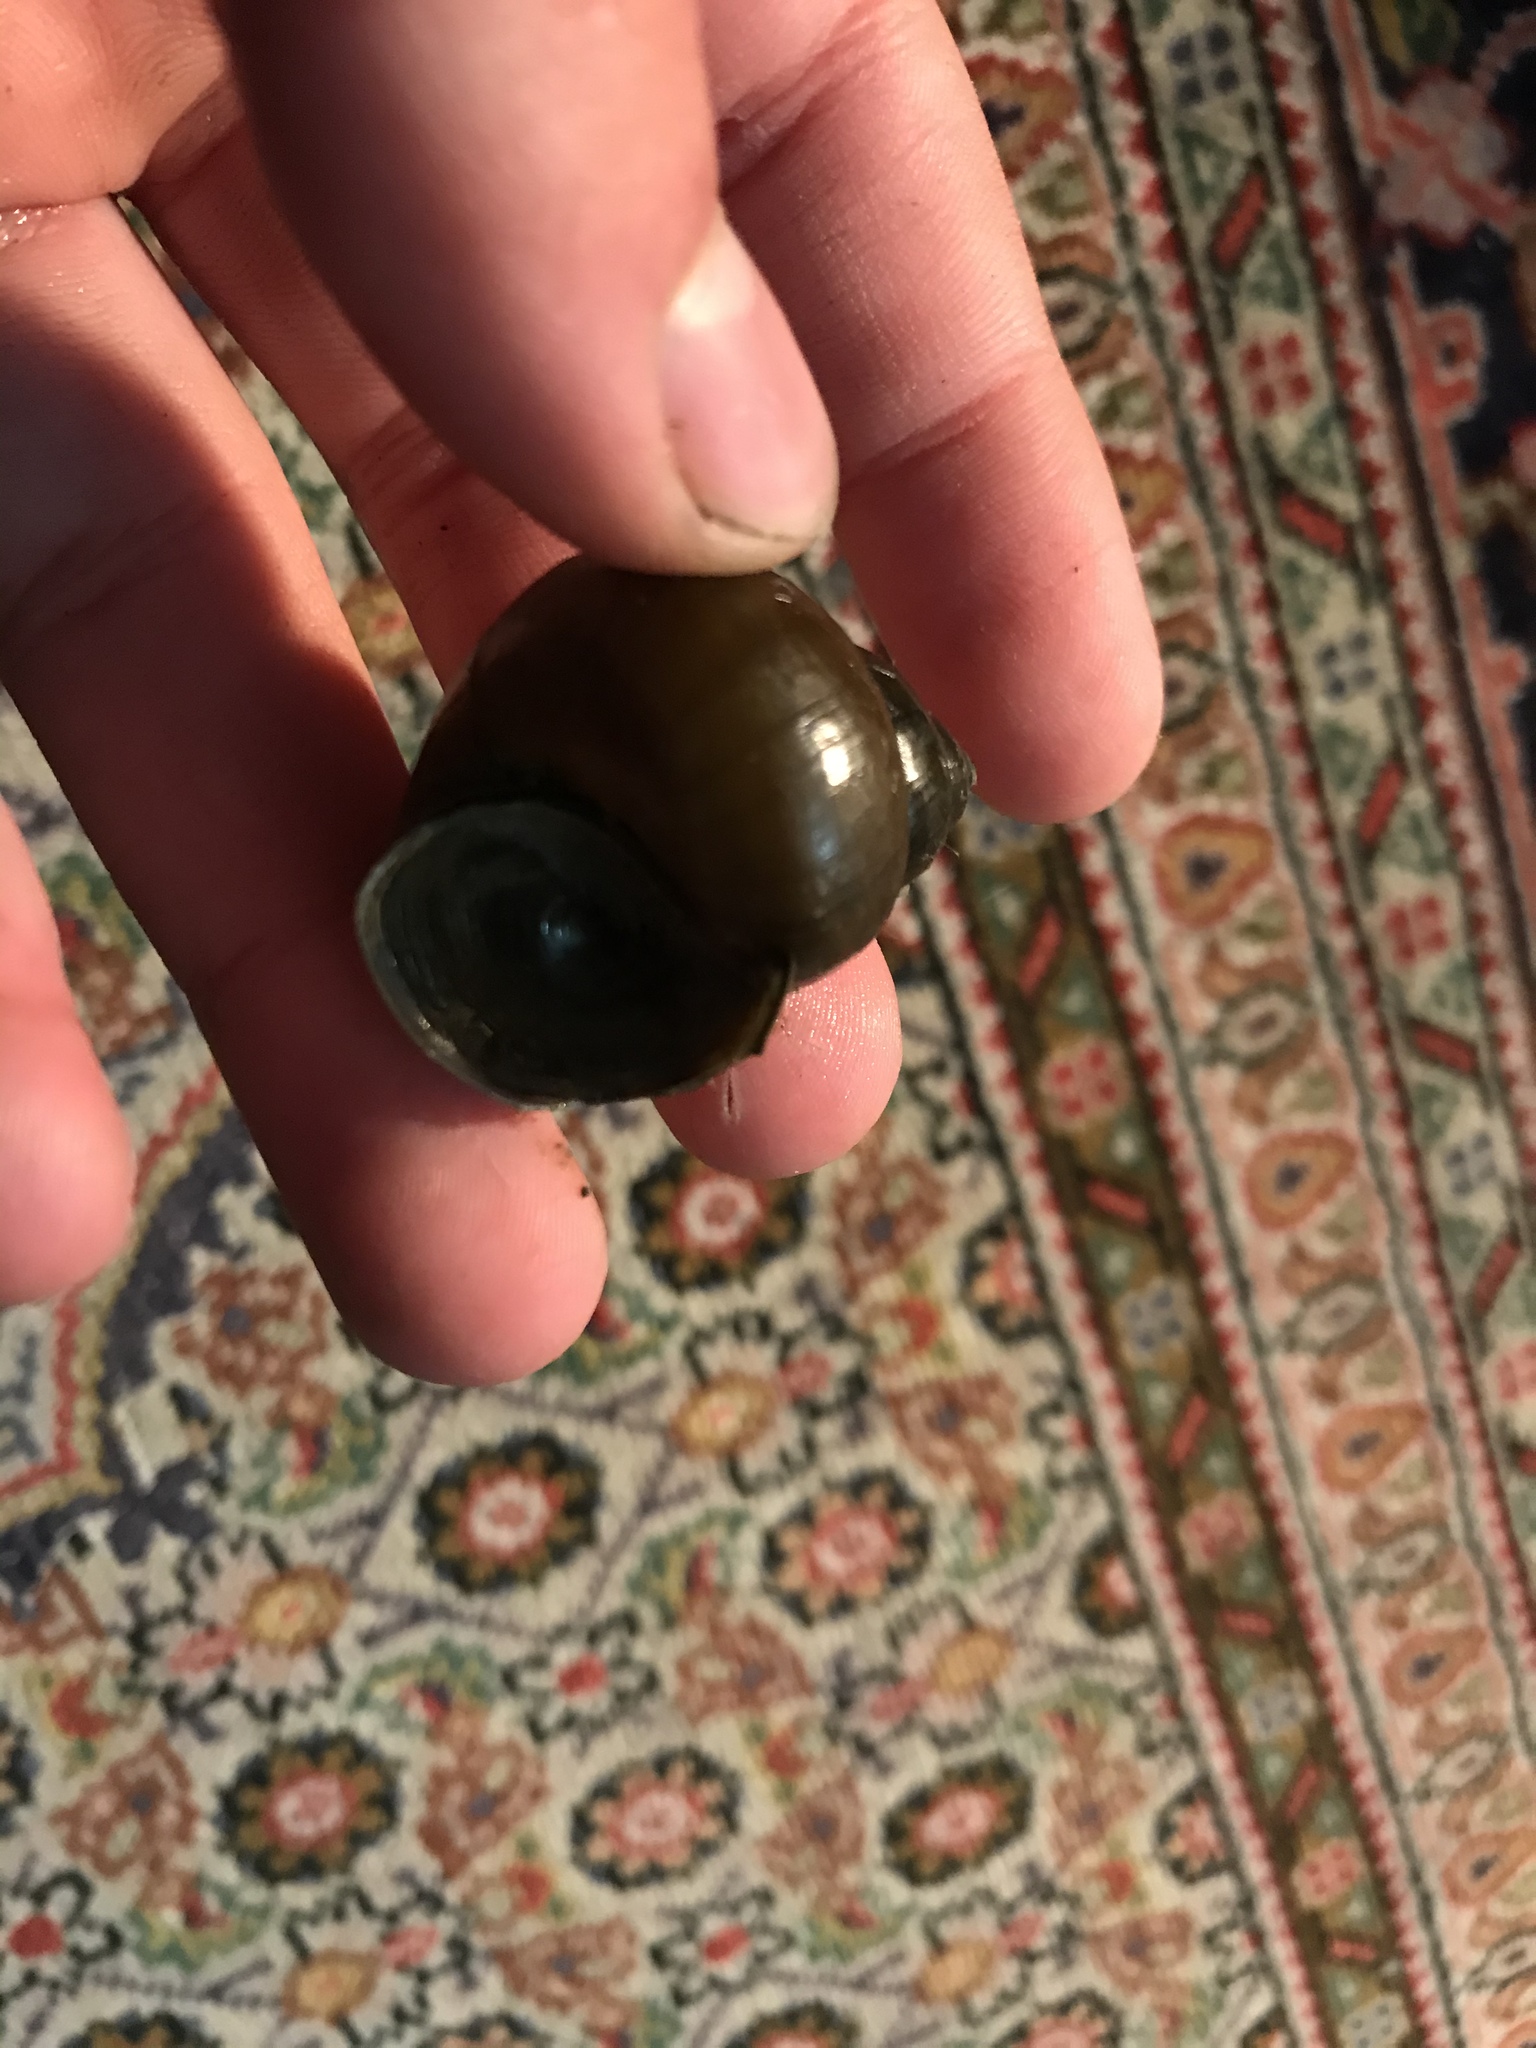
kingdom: Animalia
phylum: Mollusca
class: Gastropoda
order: Architaenioglossa
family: Viviparidae
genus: Cipangopaludina
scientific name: Cipangopaludina chinensis
